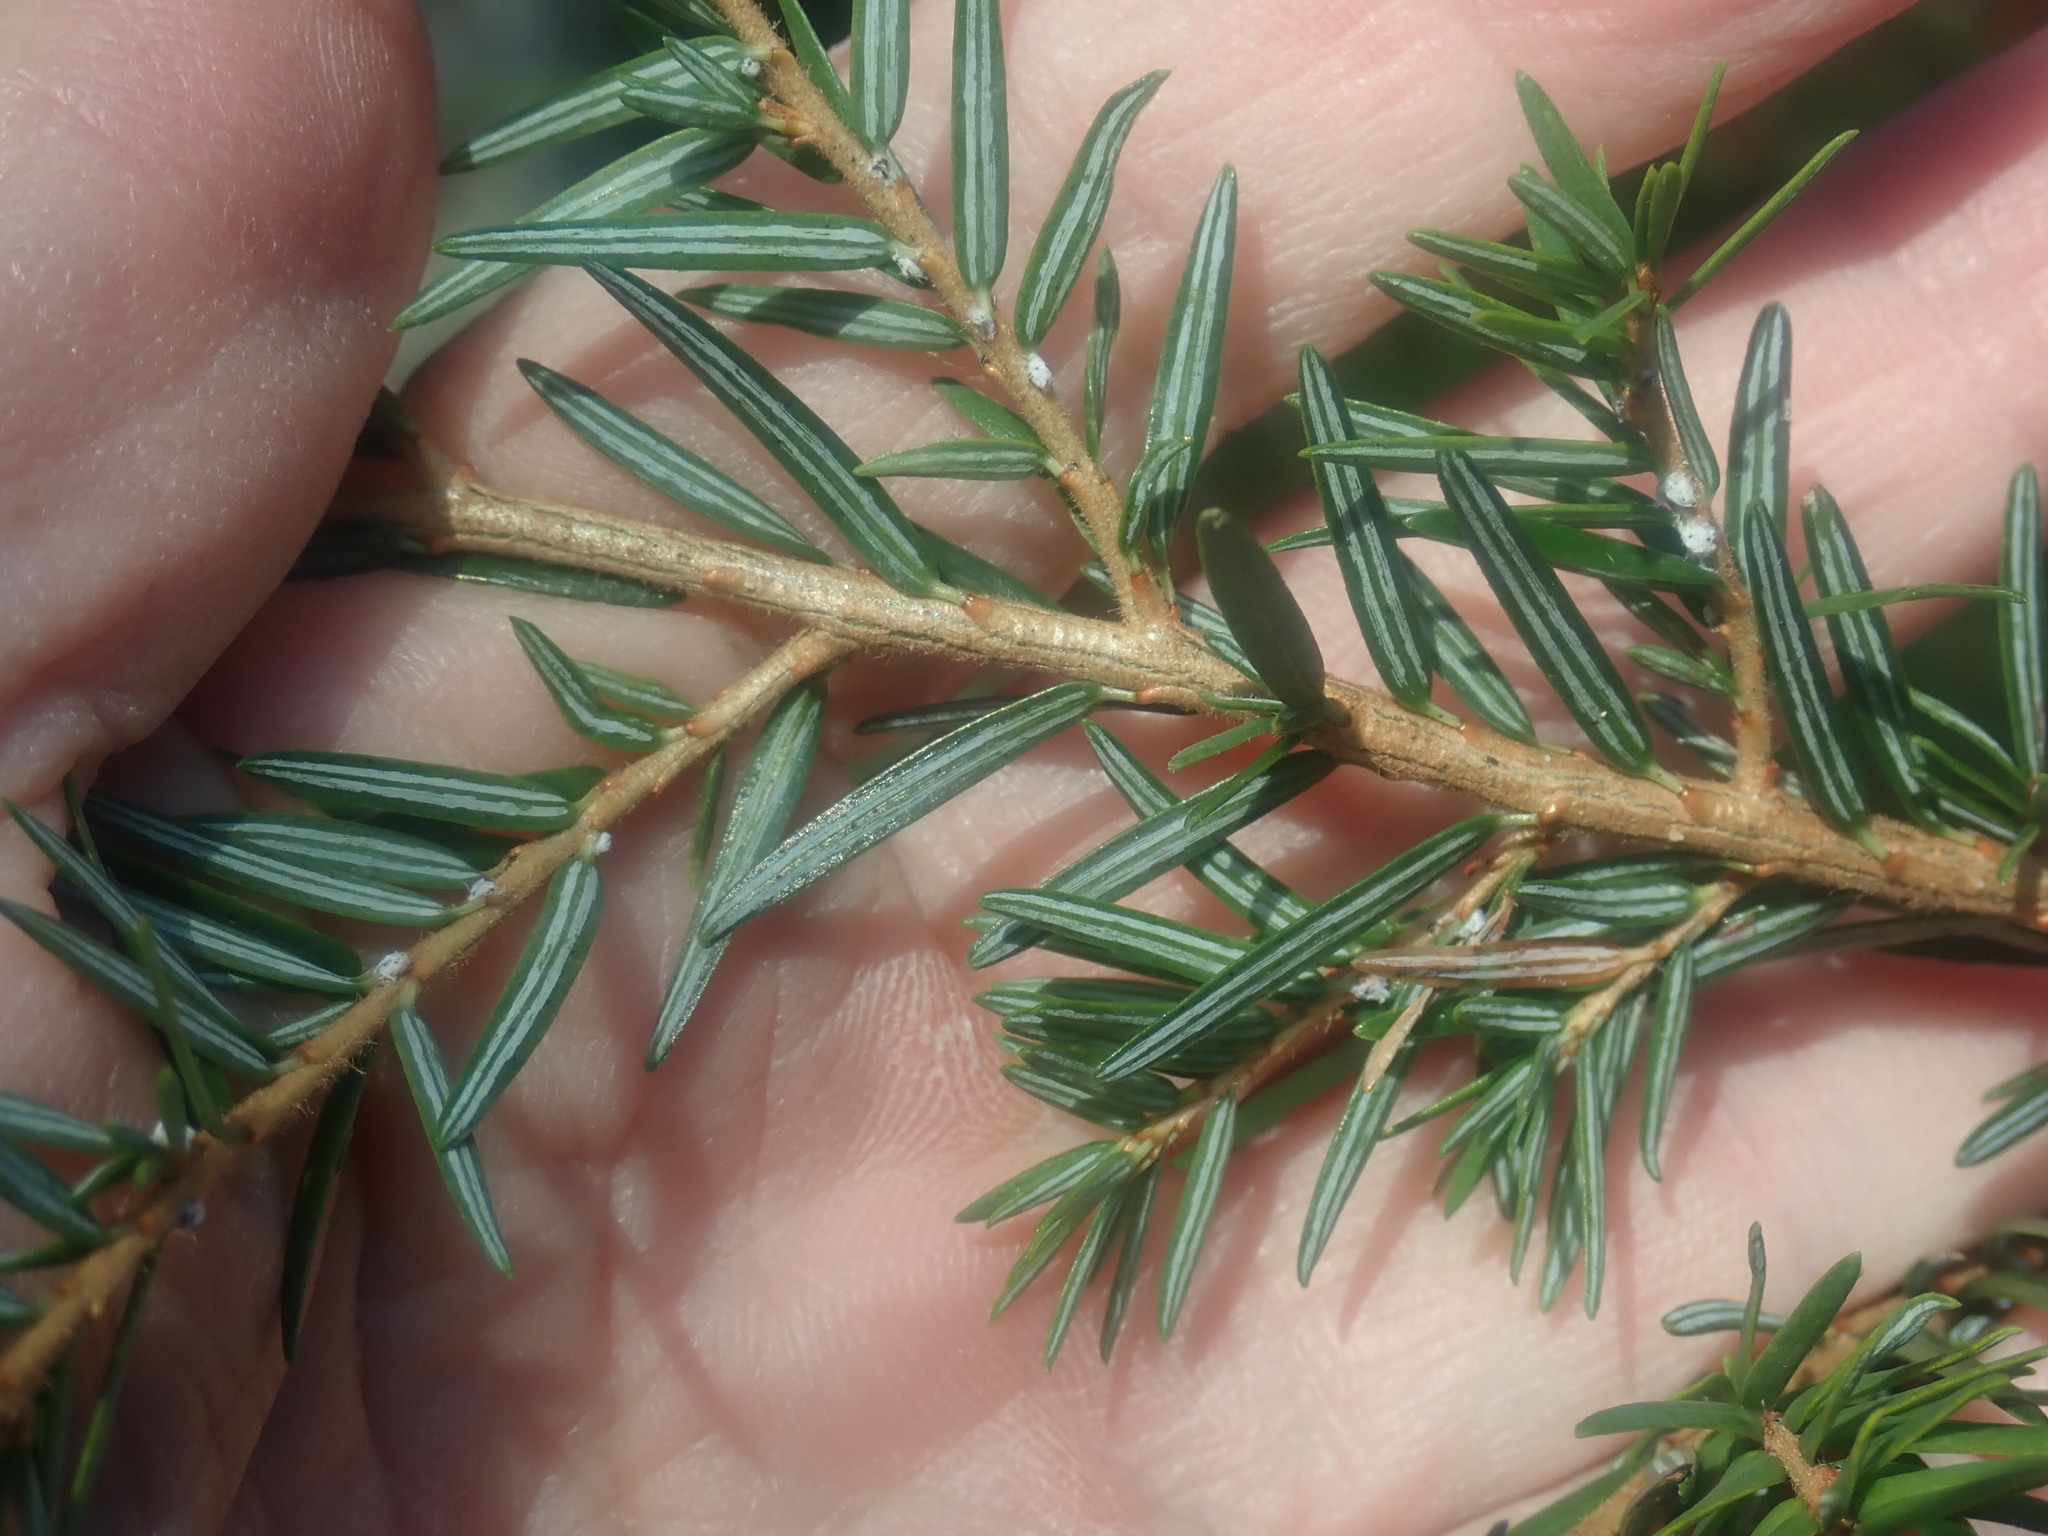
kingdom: Plantae
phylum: Tracheophyta
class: Pinopsida
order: Pinales
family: Pinaceae
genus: Tsuga
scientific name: Tsuga canadensis
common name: Eastern hemlock
